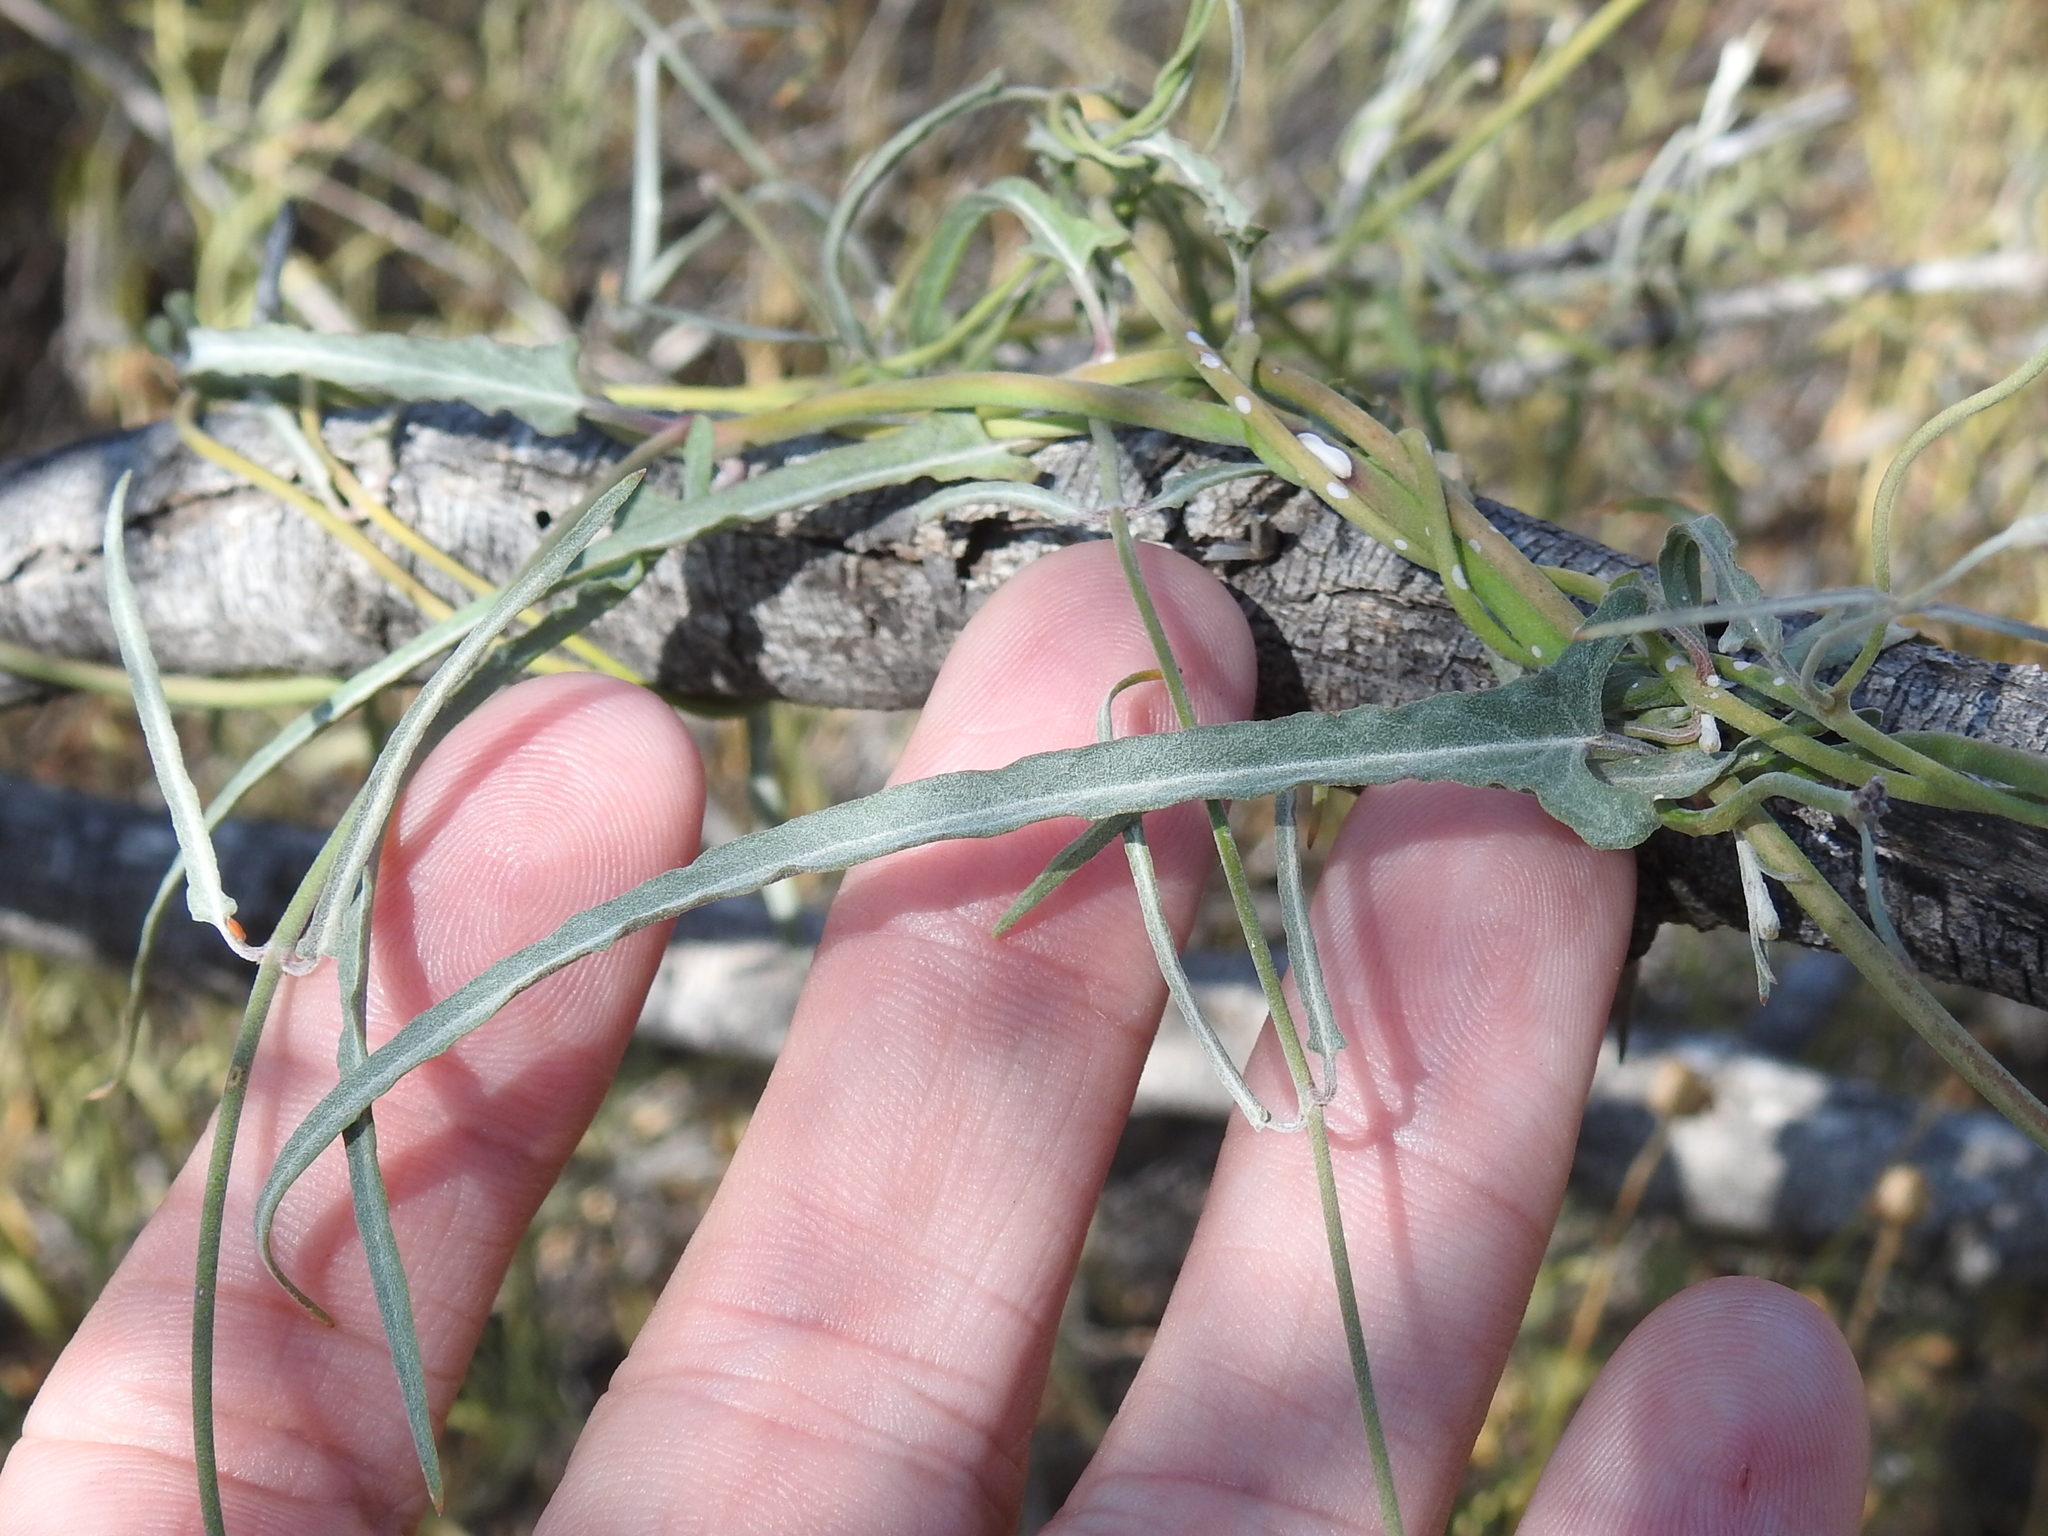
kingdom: Plantae
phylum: Tracheophyta
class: Magnoliopsida
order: Gentianales
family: Apocynaceae
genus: Funastrum
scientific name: Funastrum crispum
